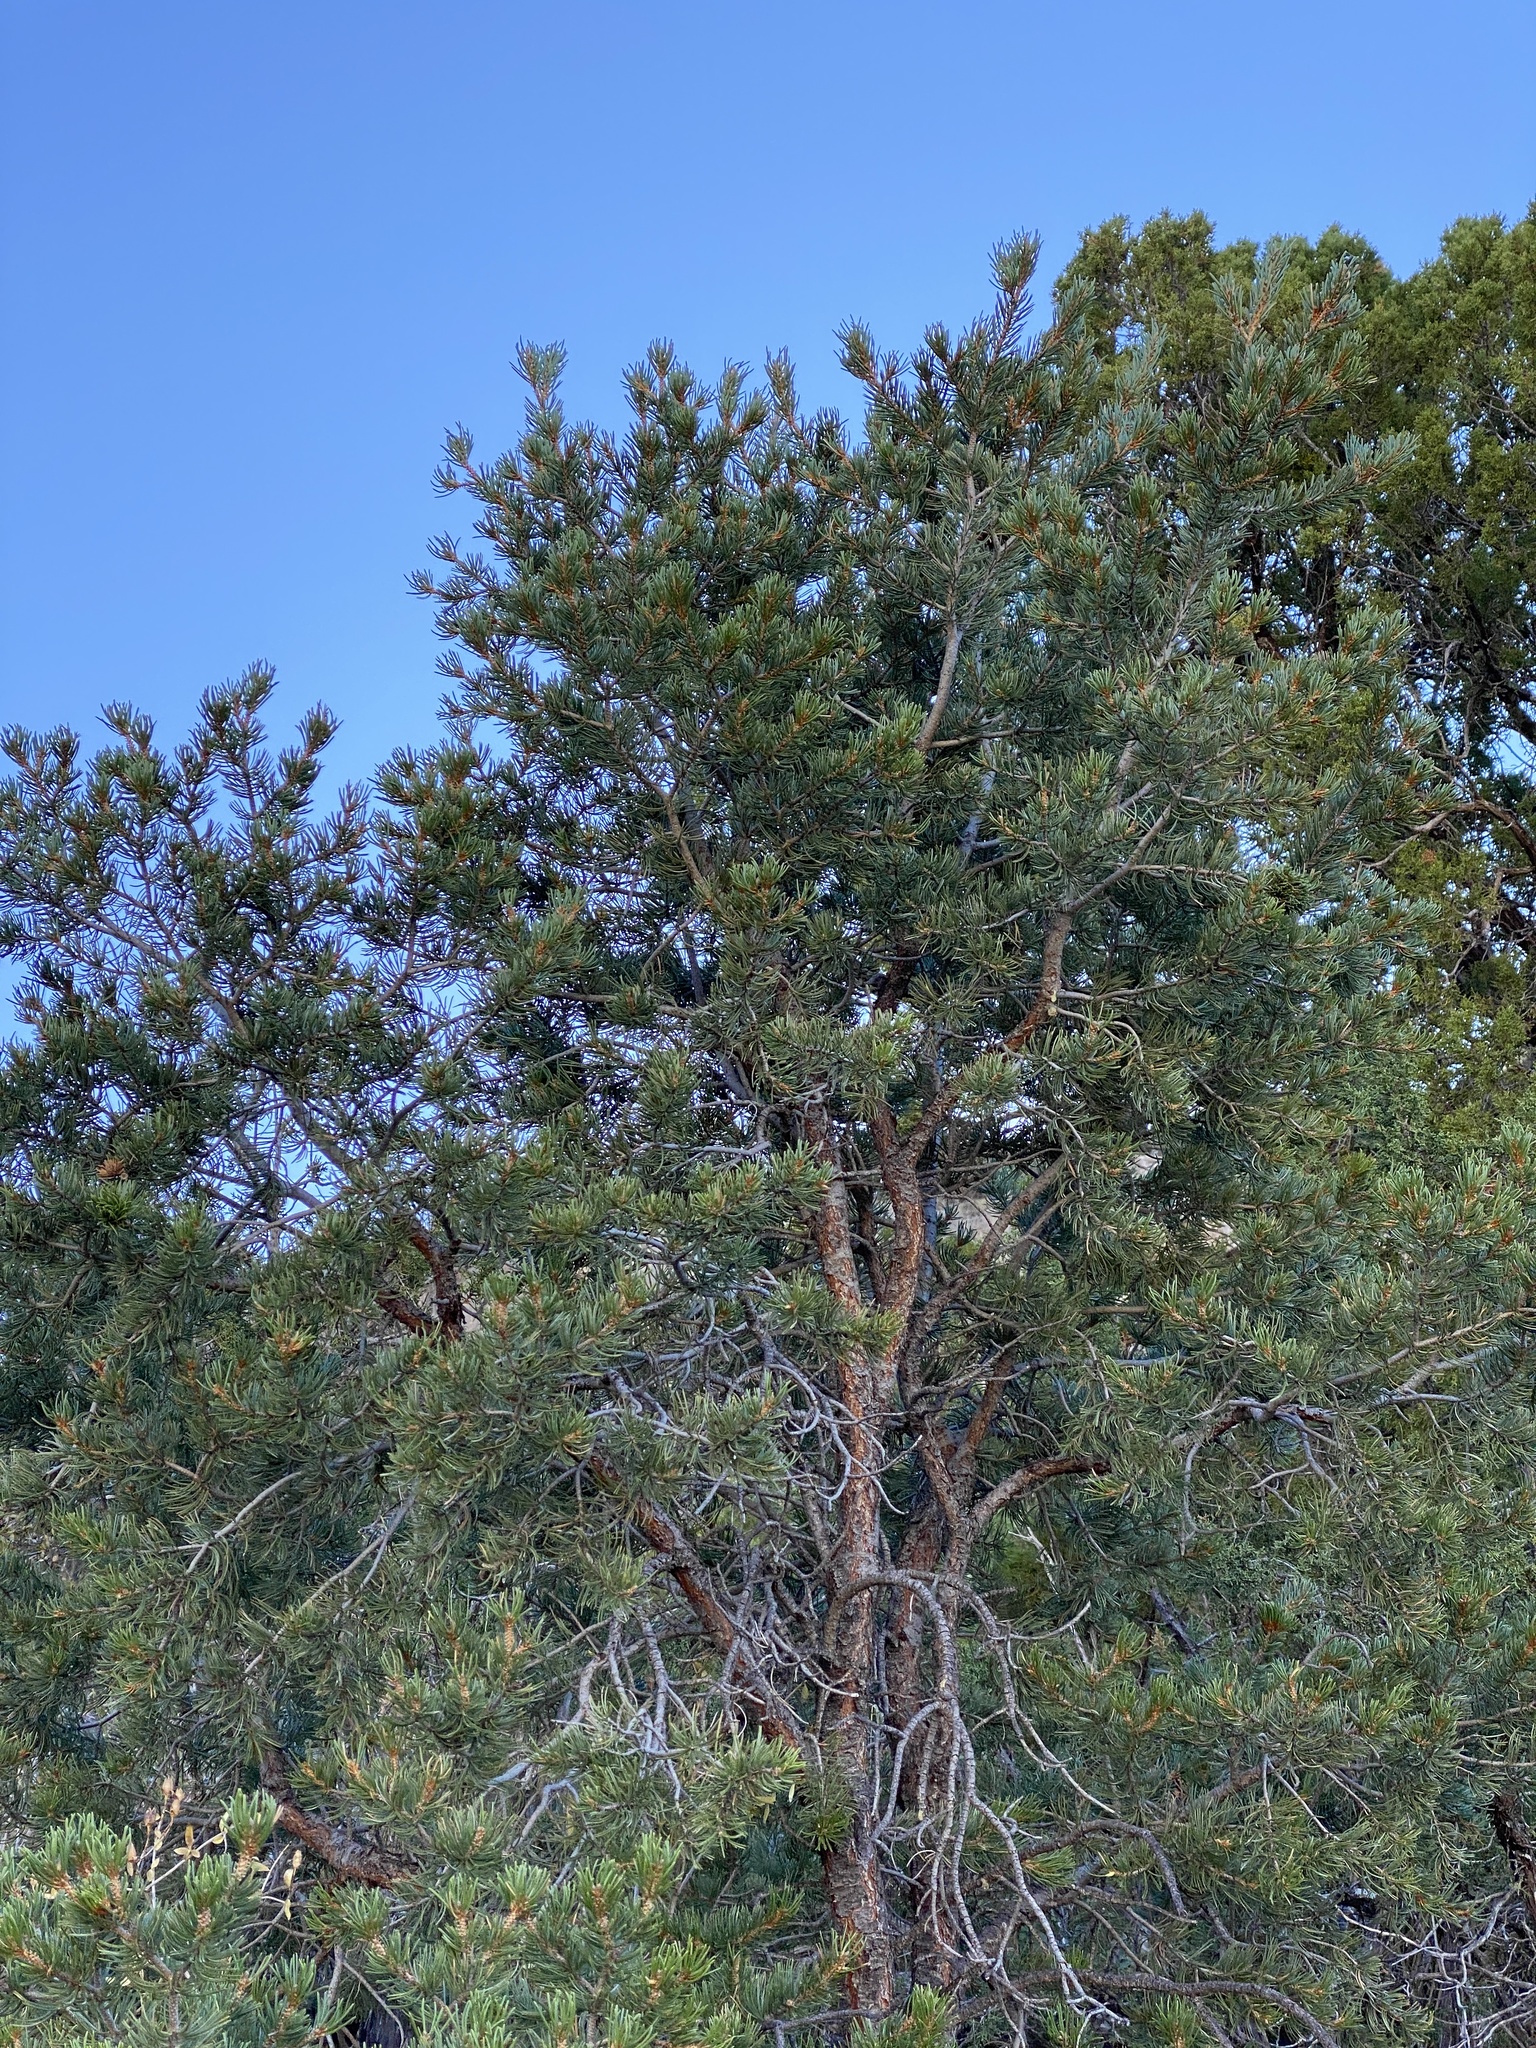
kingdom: Plantae
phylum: Tracheophyta
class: Pinopsida
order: Pinales
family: Pinaceae
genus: Pinus
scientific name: Pinus edulis
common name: Colorado pinyon
